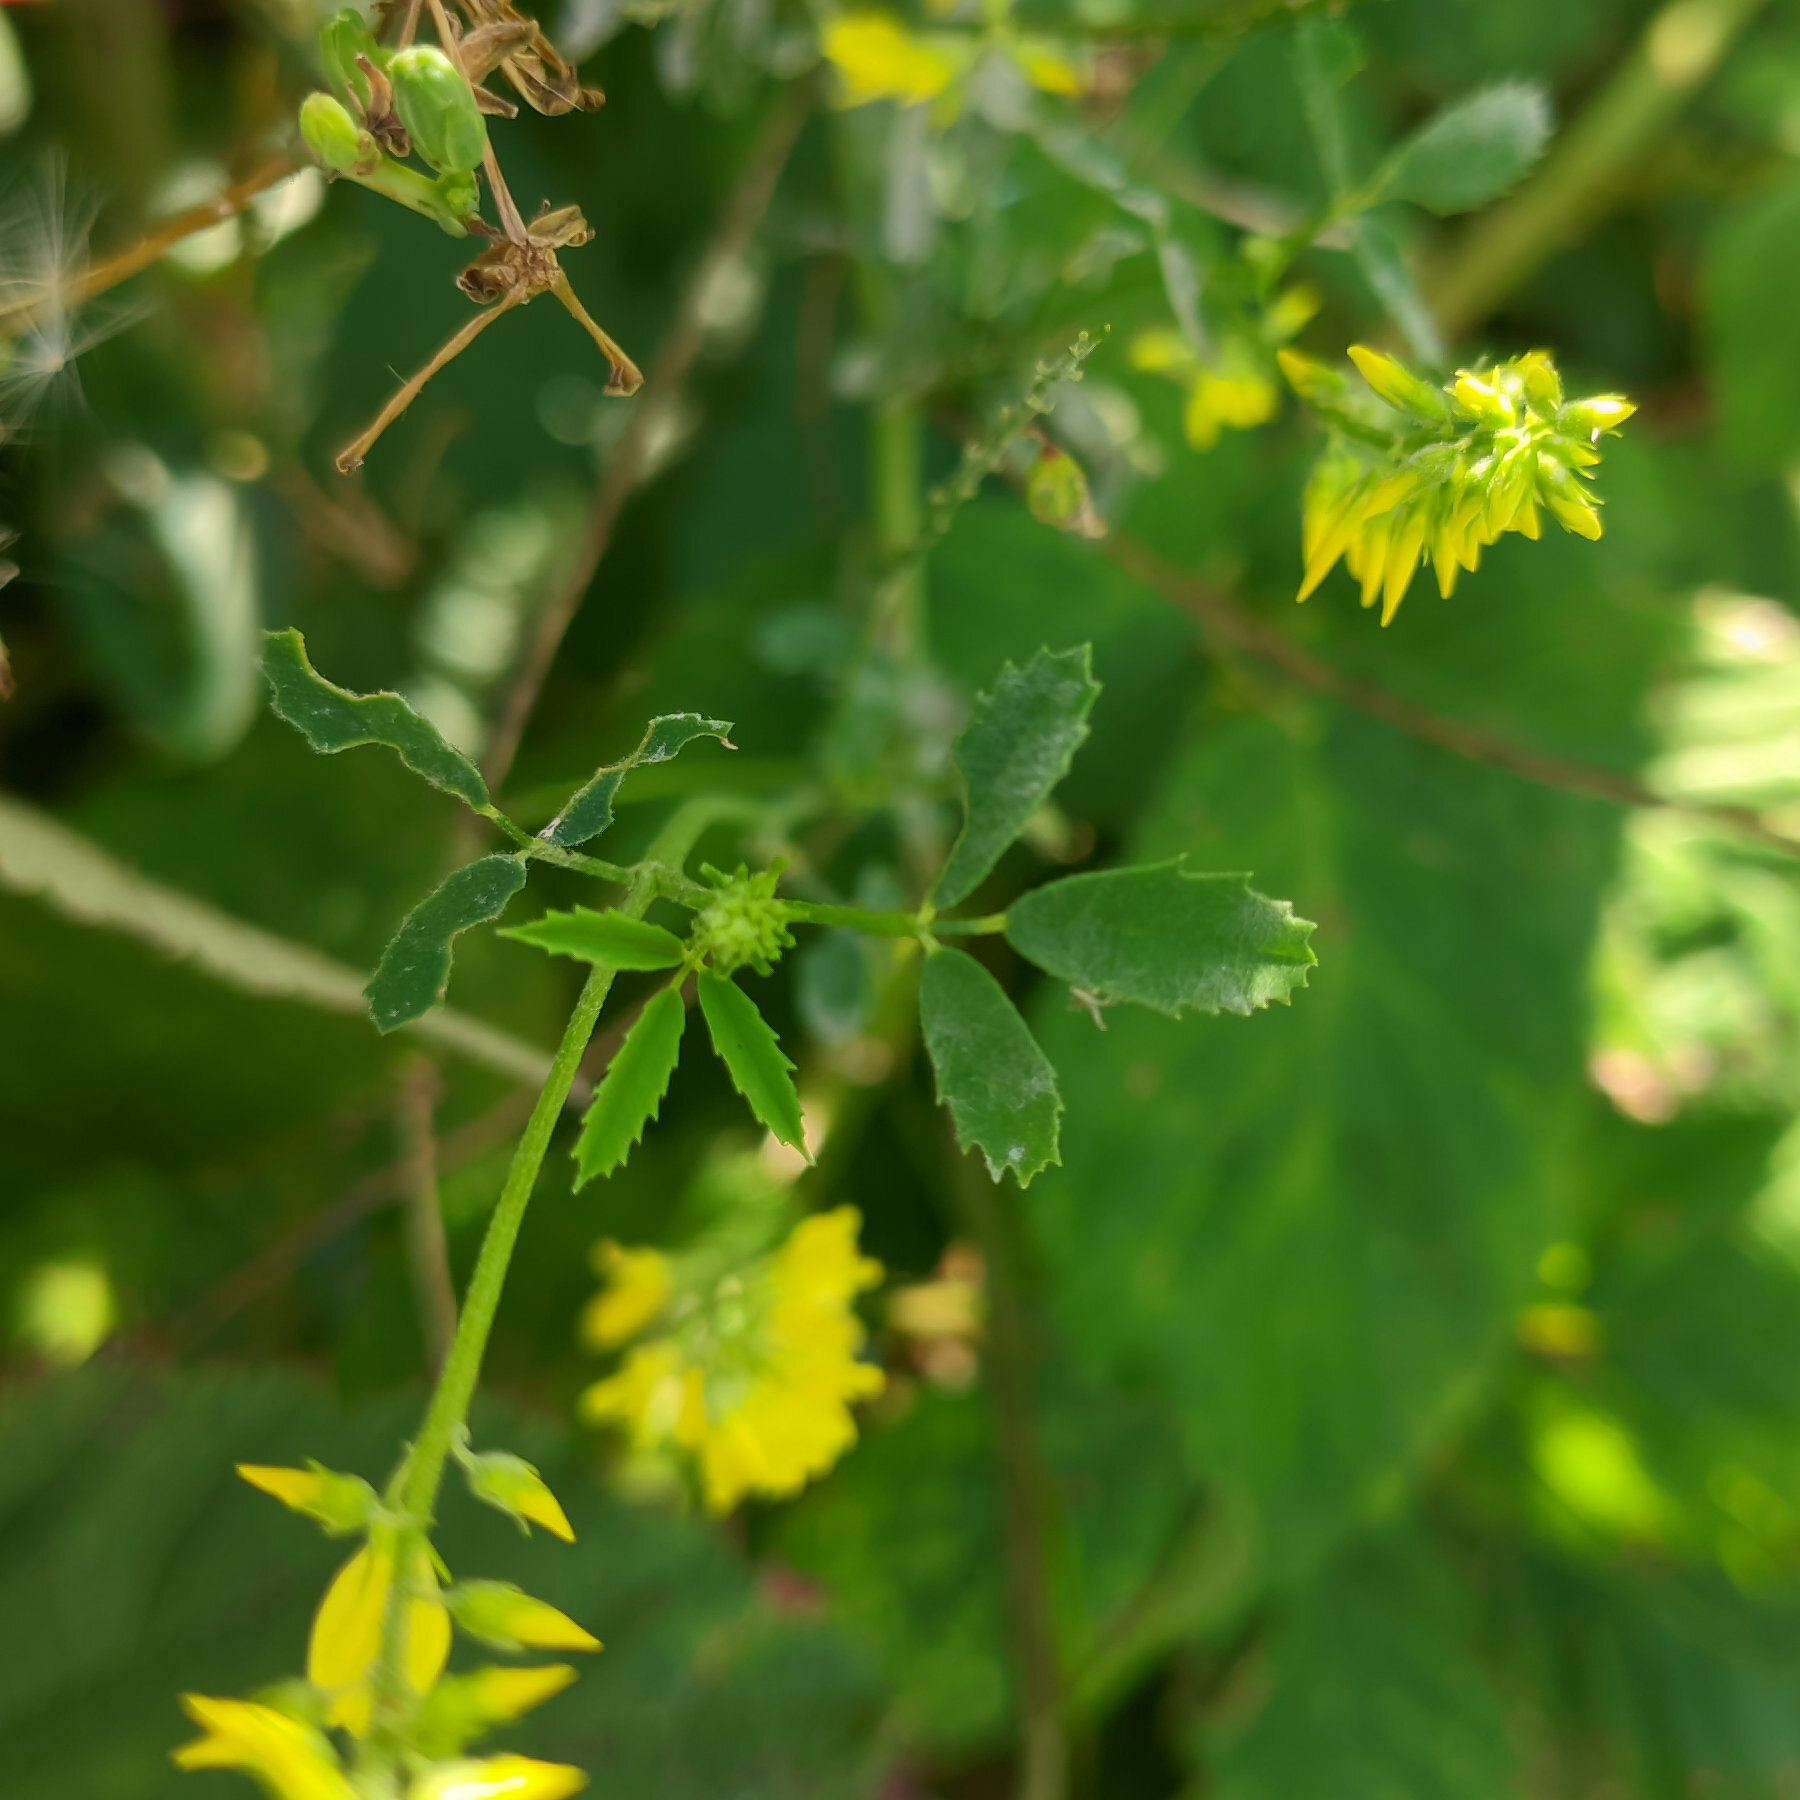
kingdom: Plantae
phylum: Tracheophyta
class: Magnoliopsida
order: Fabales
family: Fabaceae
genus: Melilotus
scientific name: Melilotus officinalis
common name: Sweetclover
